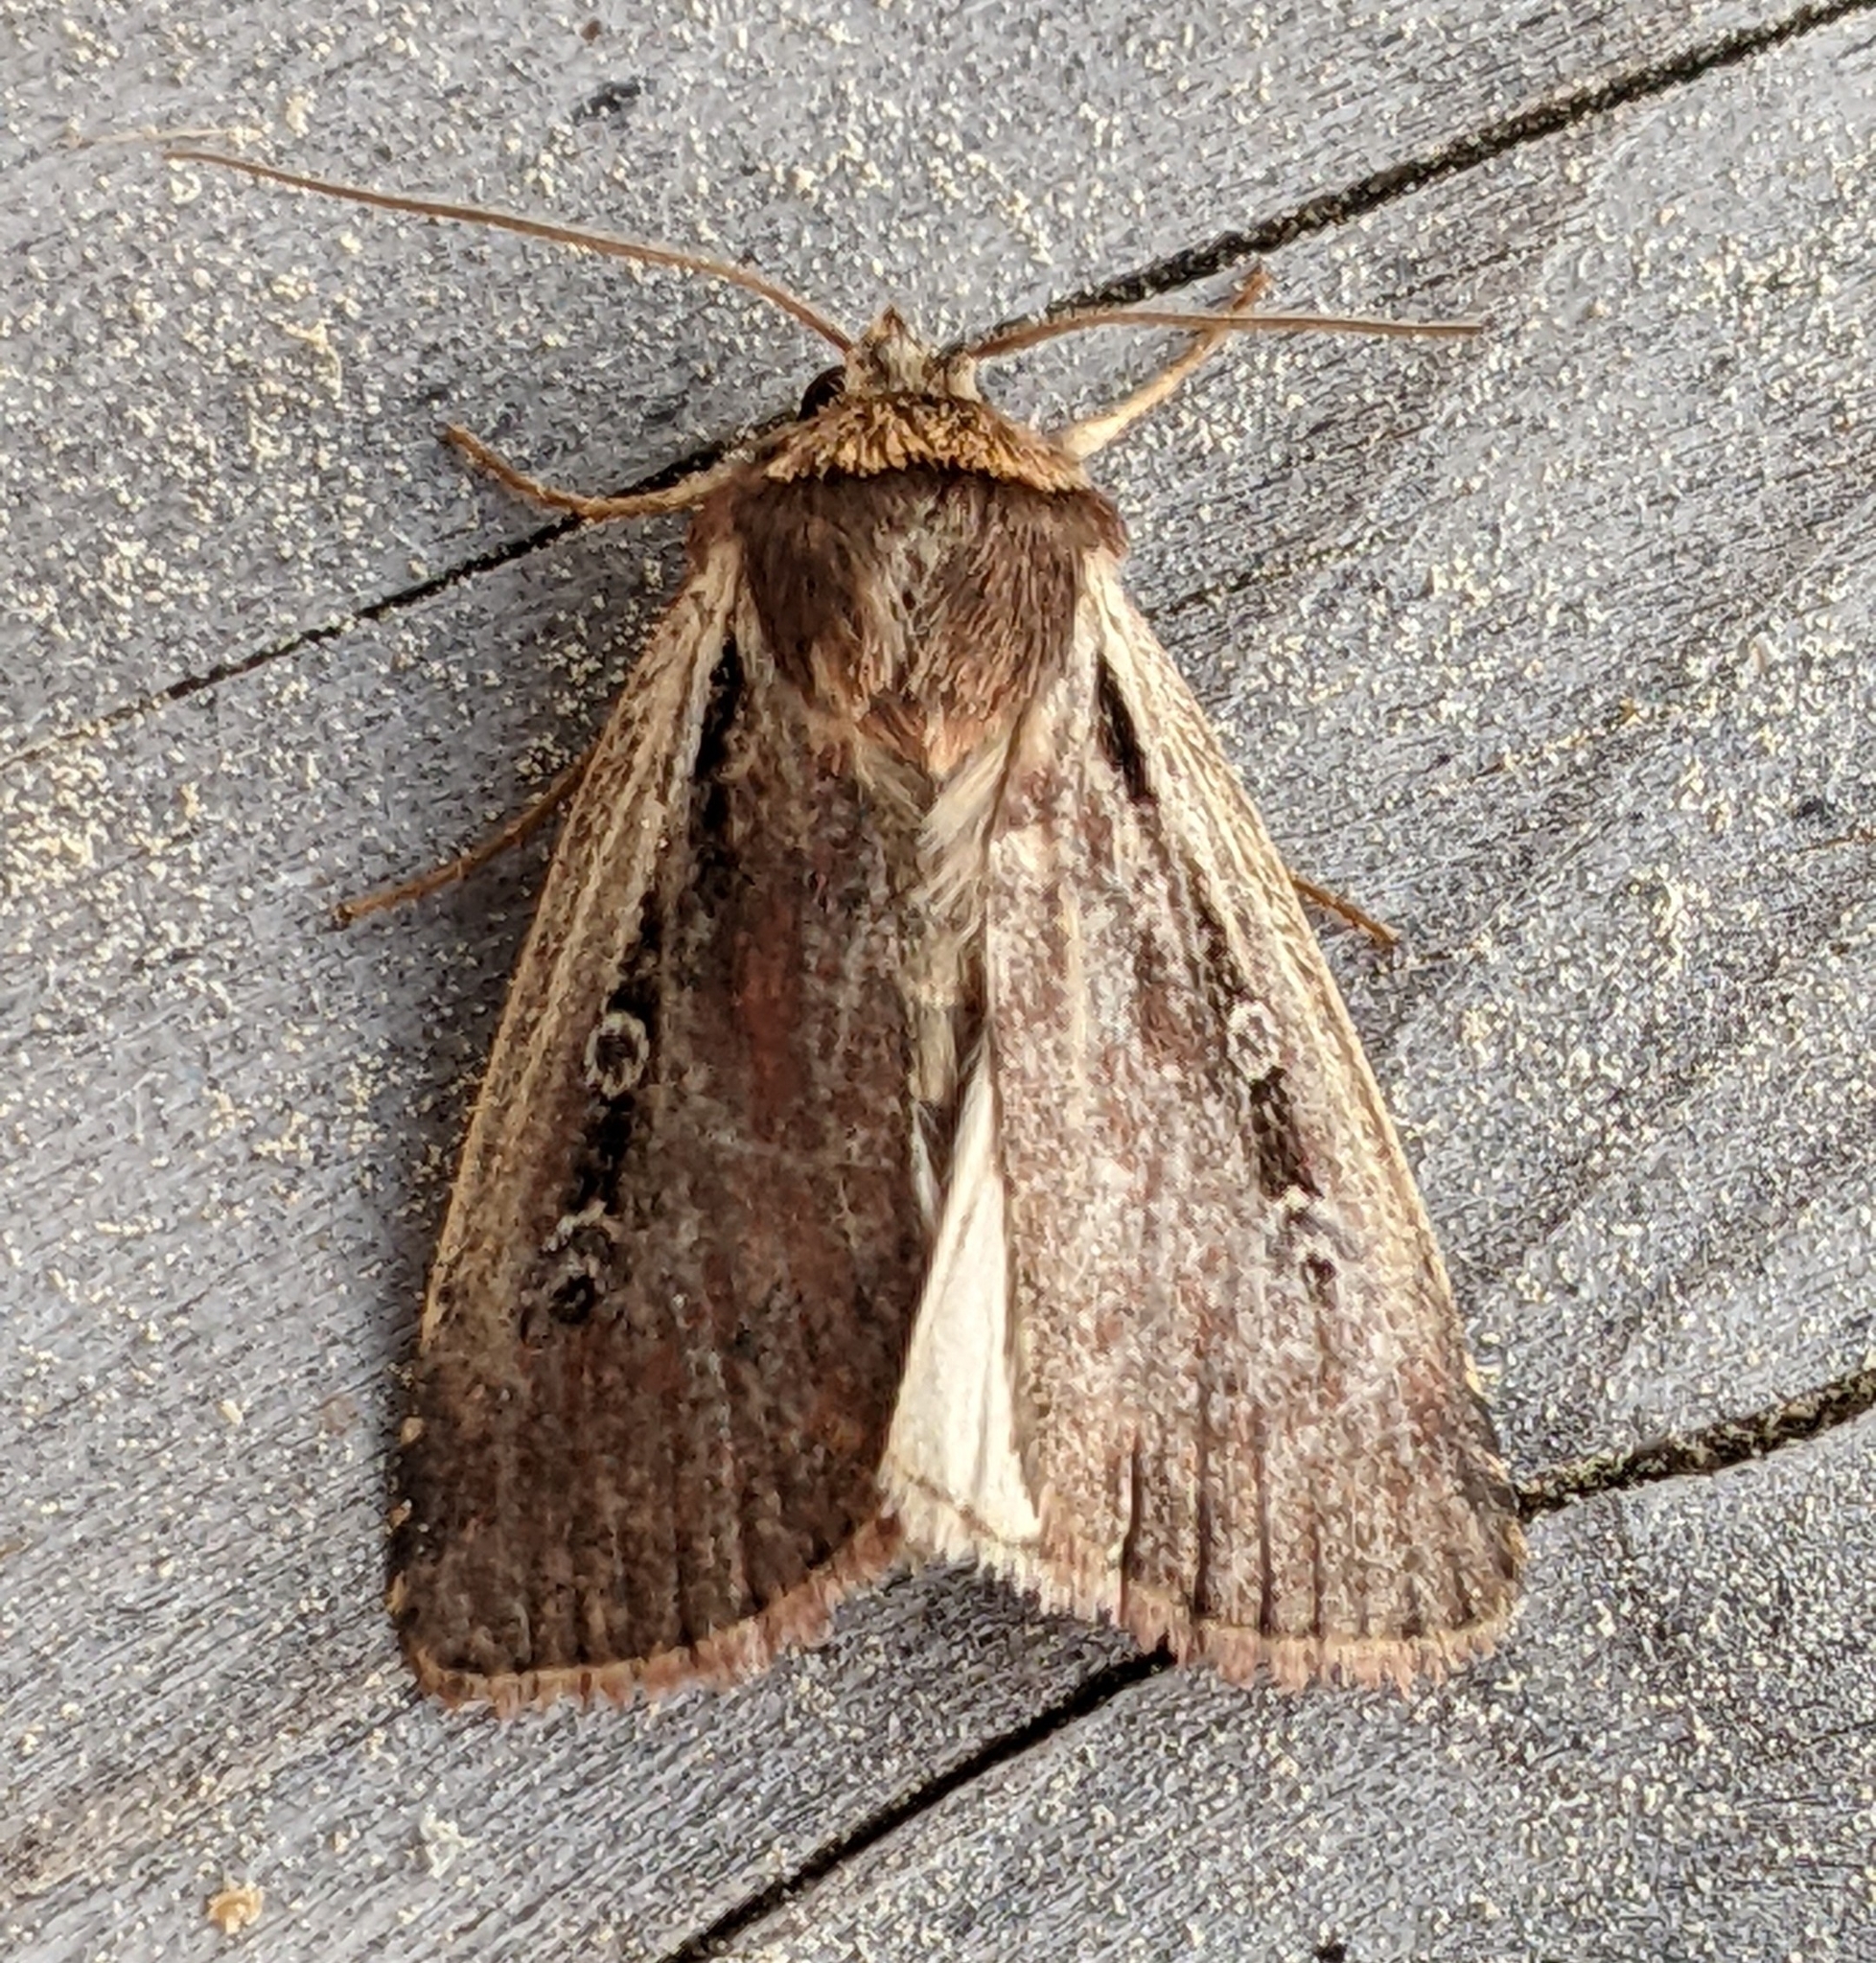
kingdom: Animalia
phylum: Arthropoda
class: Insecta
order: Lepidoptera
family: Noctuidae
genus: Ochropleura
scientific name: Ochropleura implecta
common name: Flame-shouldered dart
